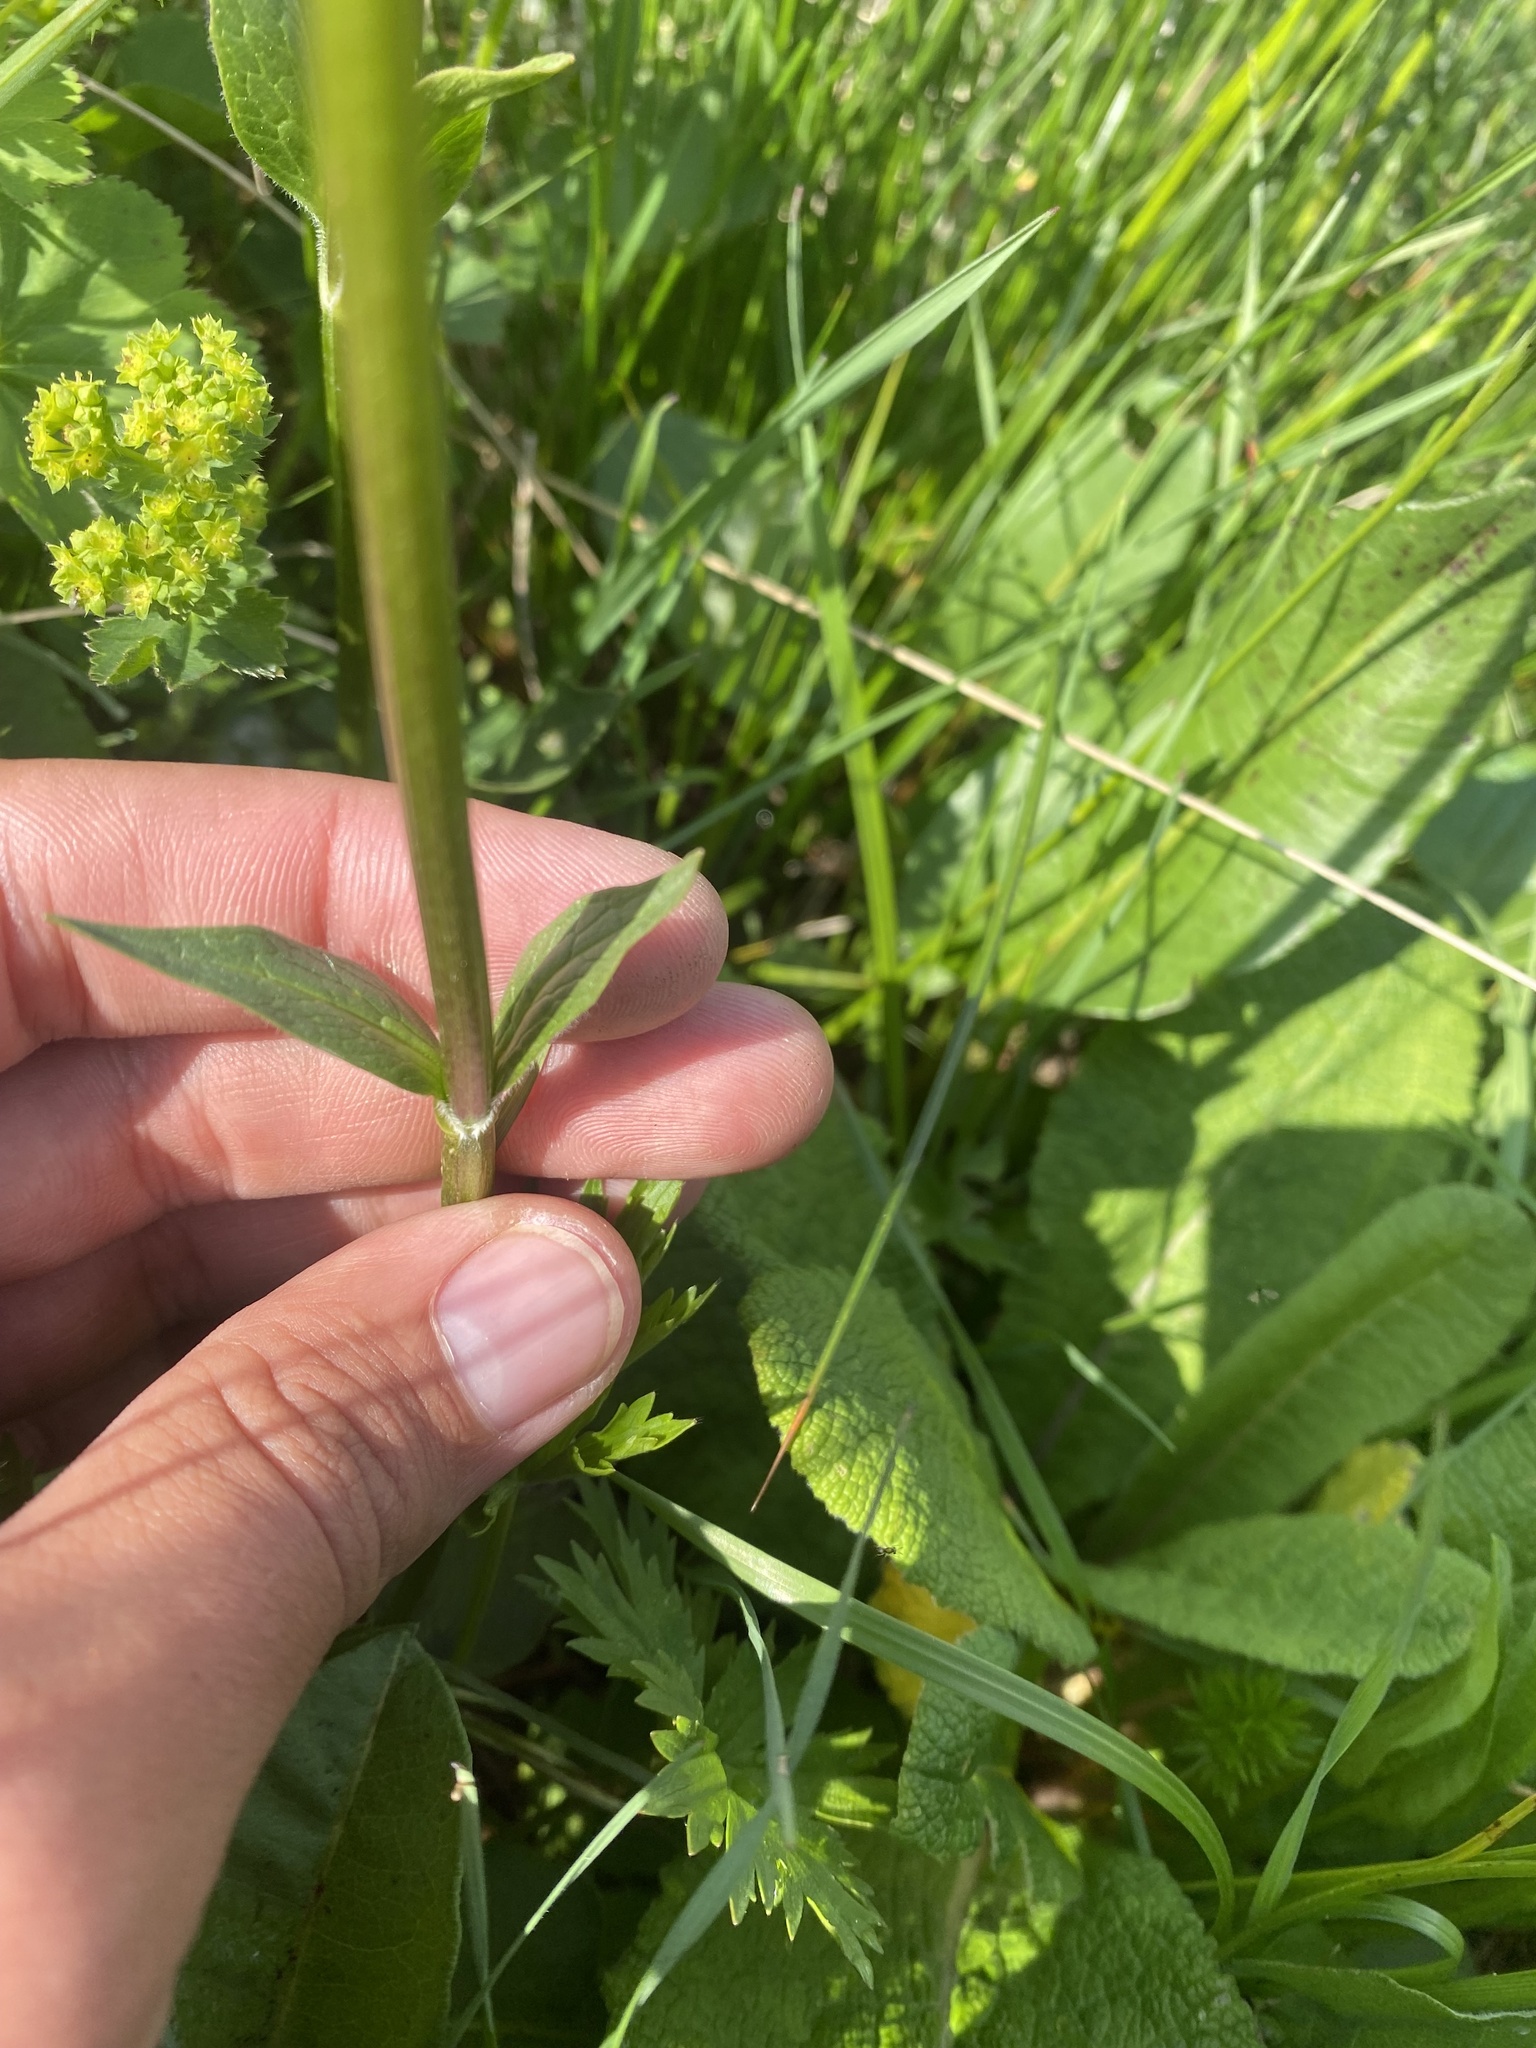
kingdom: Plantae
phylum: Tracheophyta
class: Magnoliopsida
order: Dipsacales
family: Caprifoliaceae
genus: Valeriana
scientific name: Valeriana alpestris
